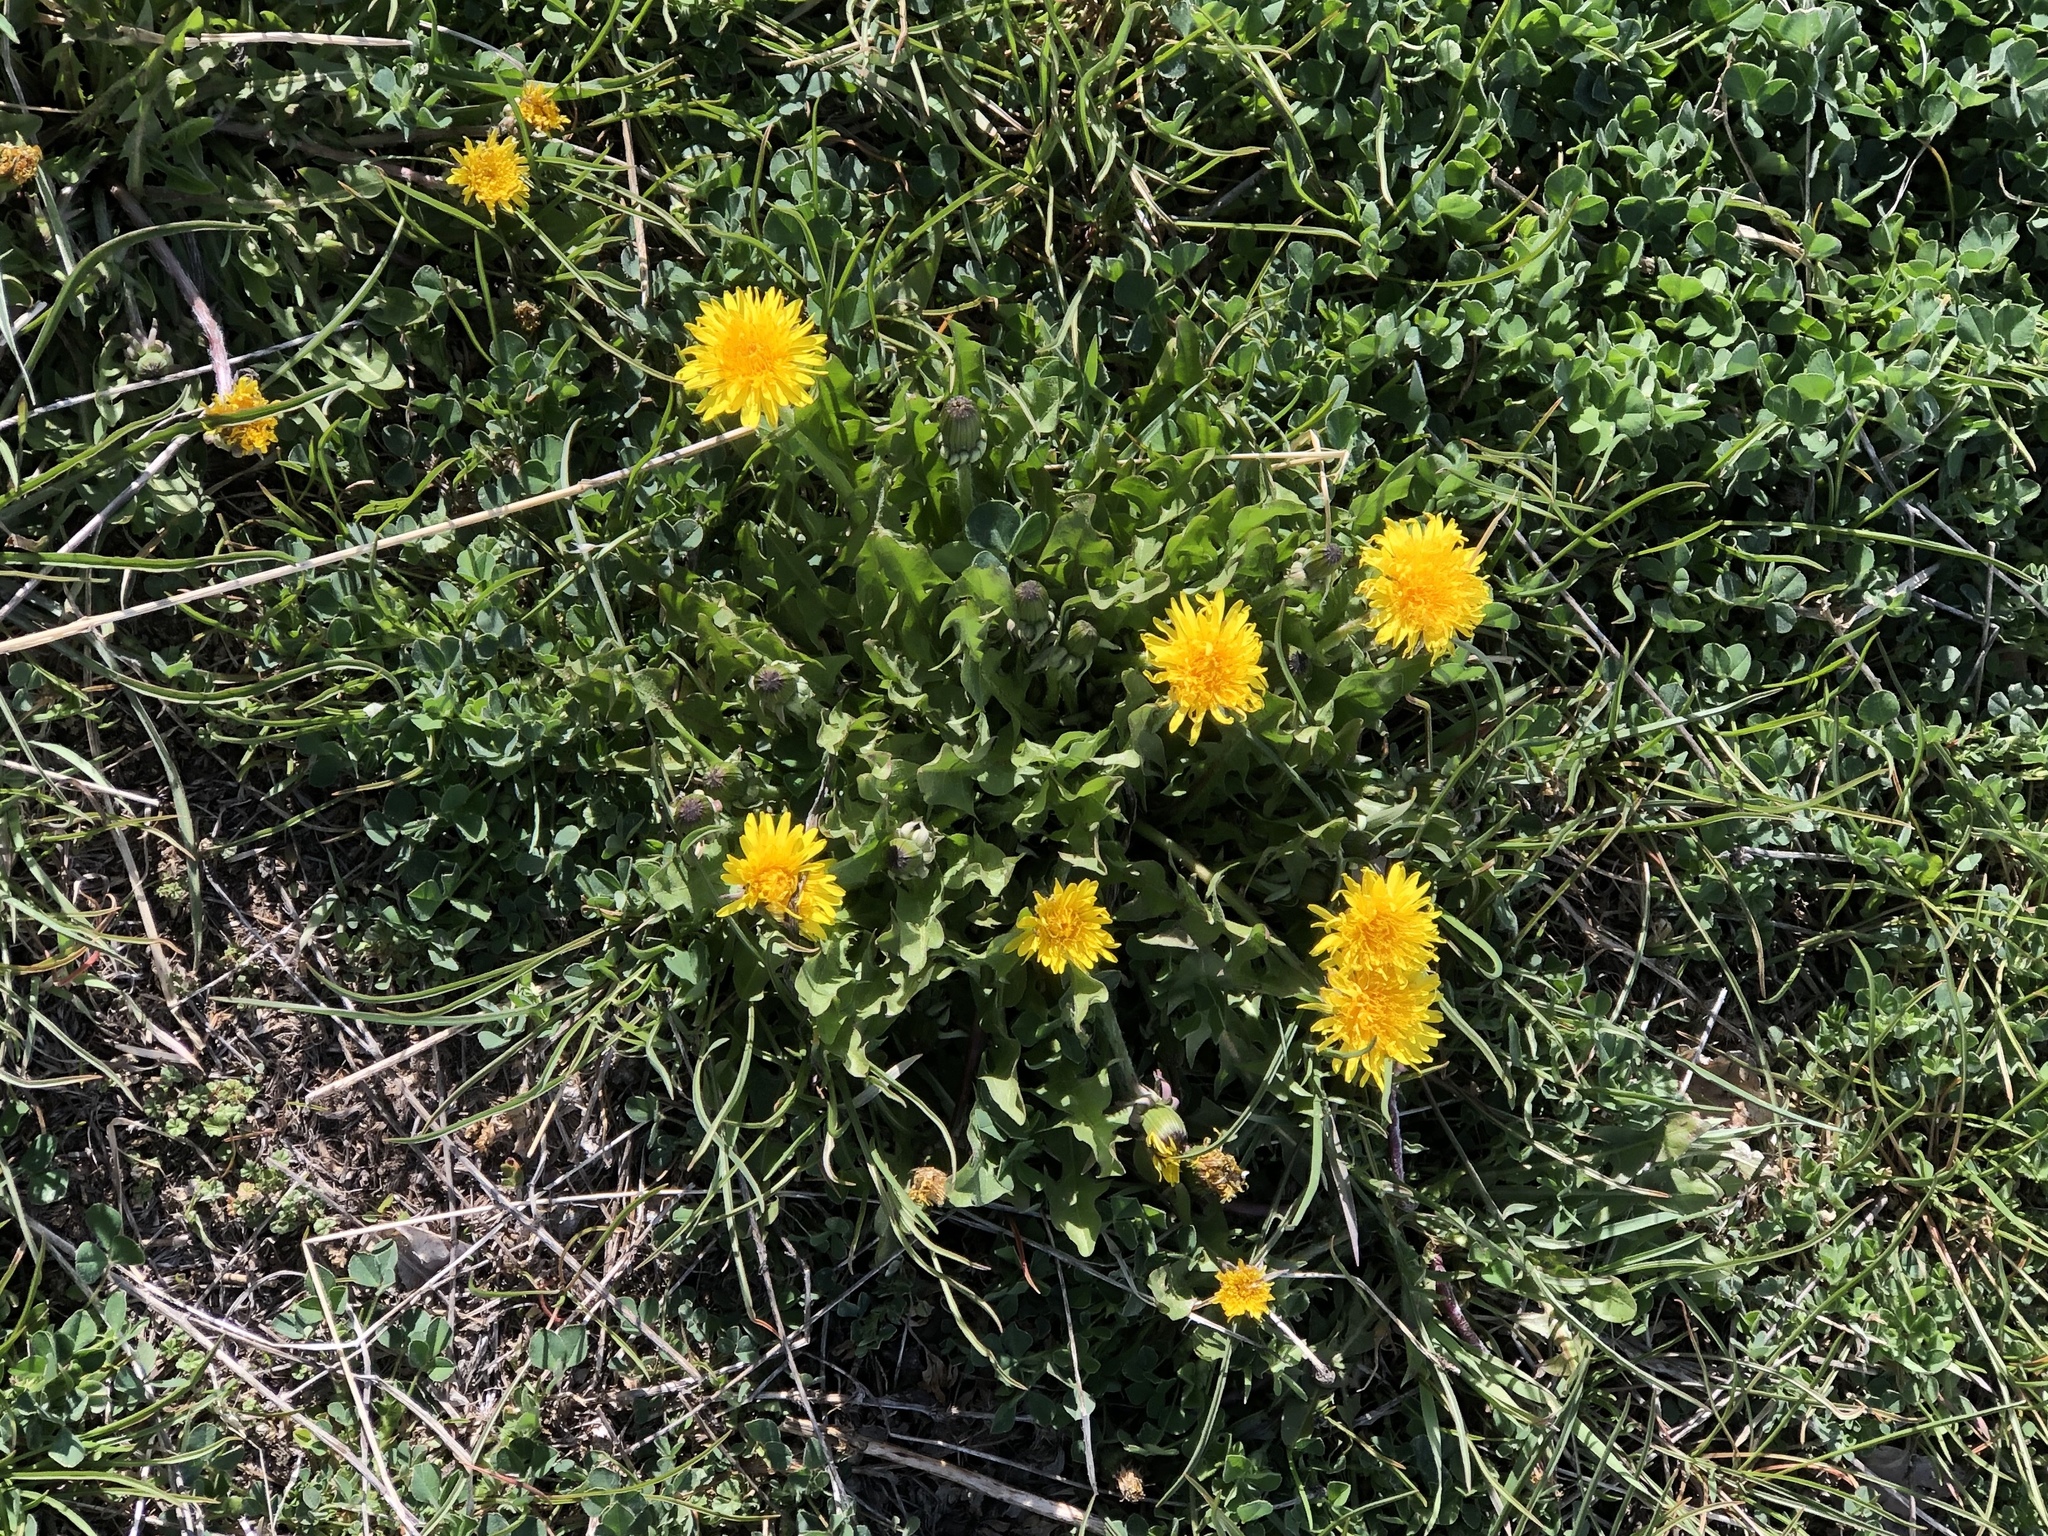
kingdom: Plantae
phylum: Tracheophyta
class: Magnoliopsida
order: Asterales
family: Asteraceae
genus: Taraxacum
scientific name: Taraxacum officinale
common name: Common dandelion
